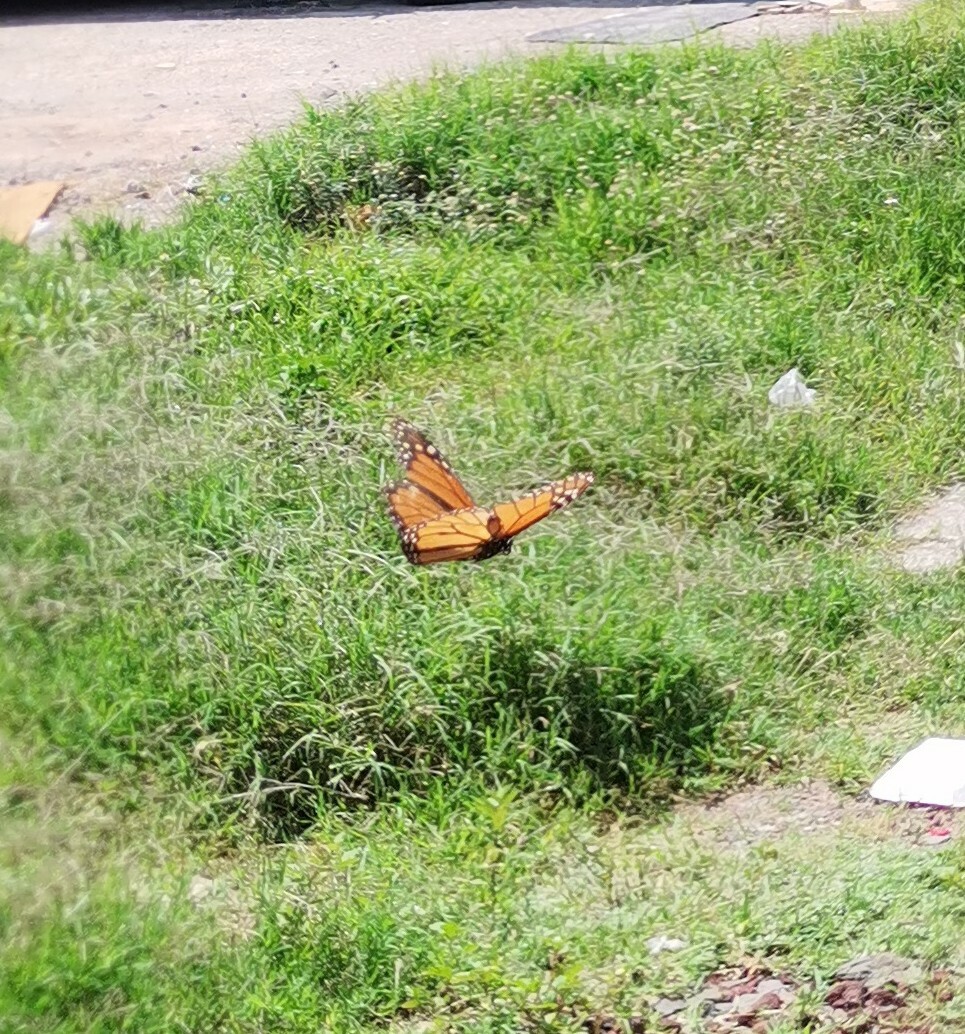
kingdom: Animalia
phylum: Arthropoda
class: Insecta
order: Lepidoptera
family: Nymphalidae
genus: Danaus
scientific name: Danaus plexippus
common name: Monarch
